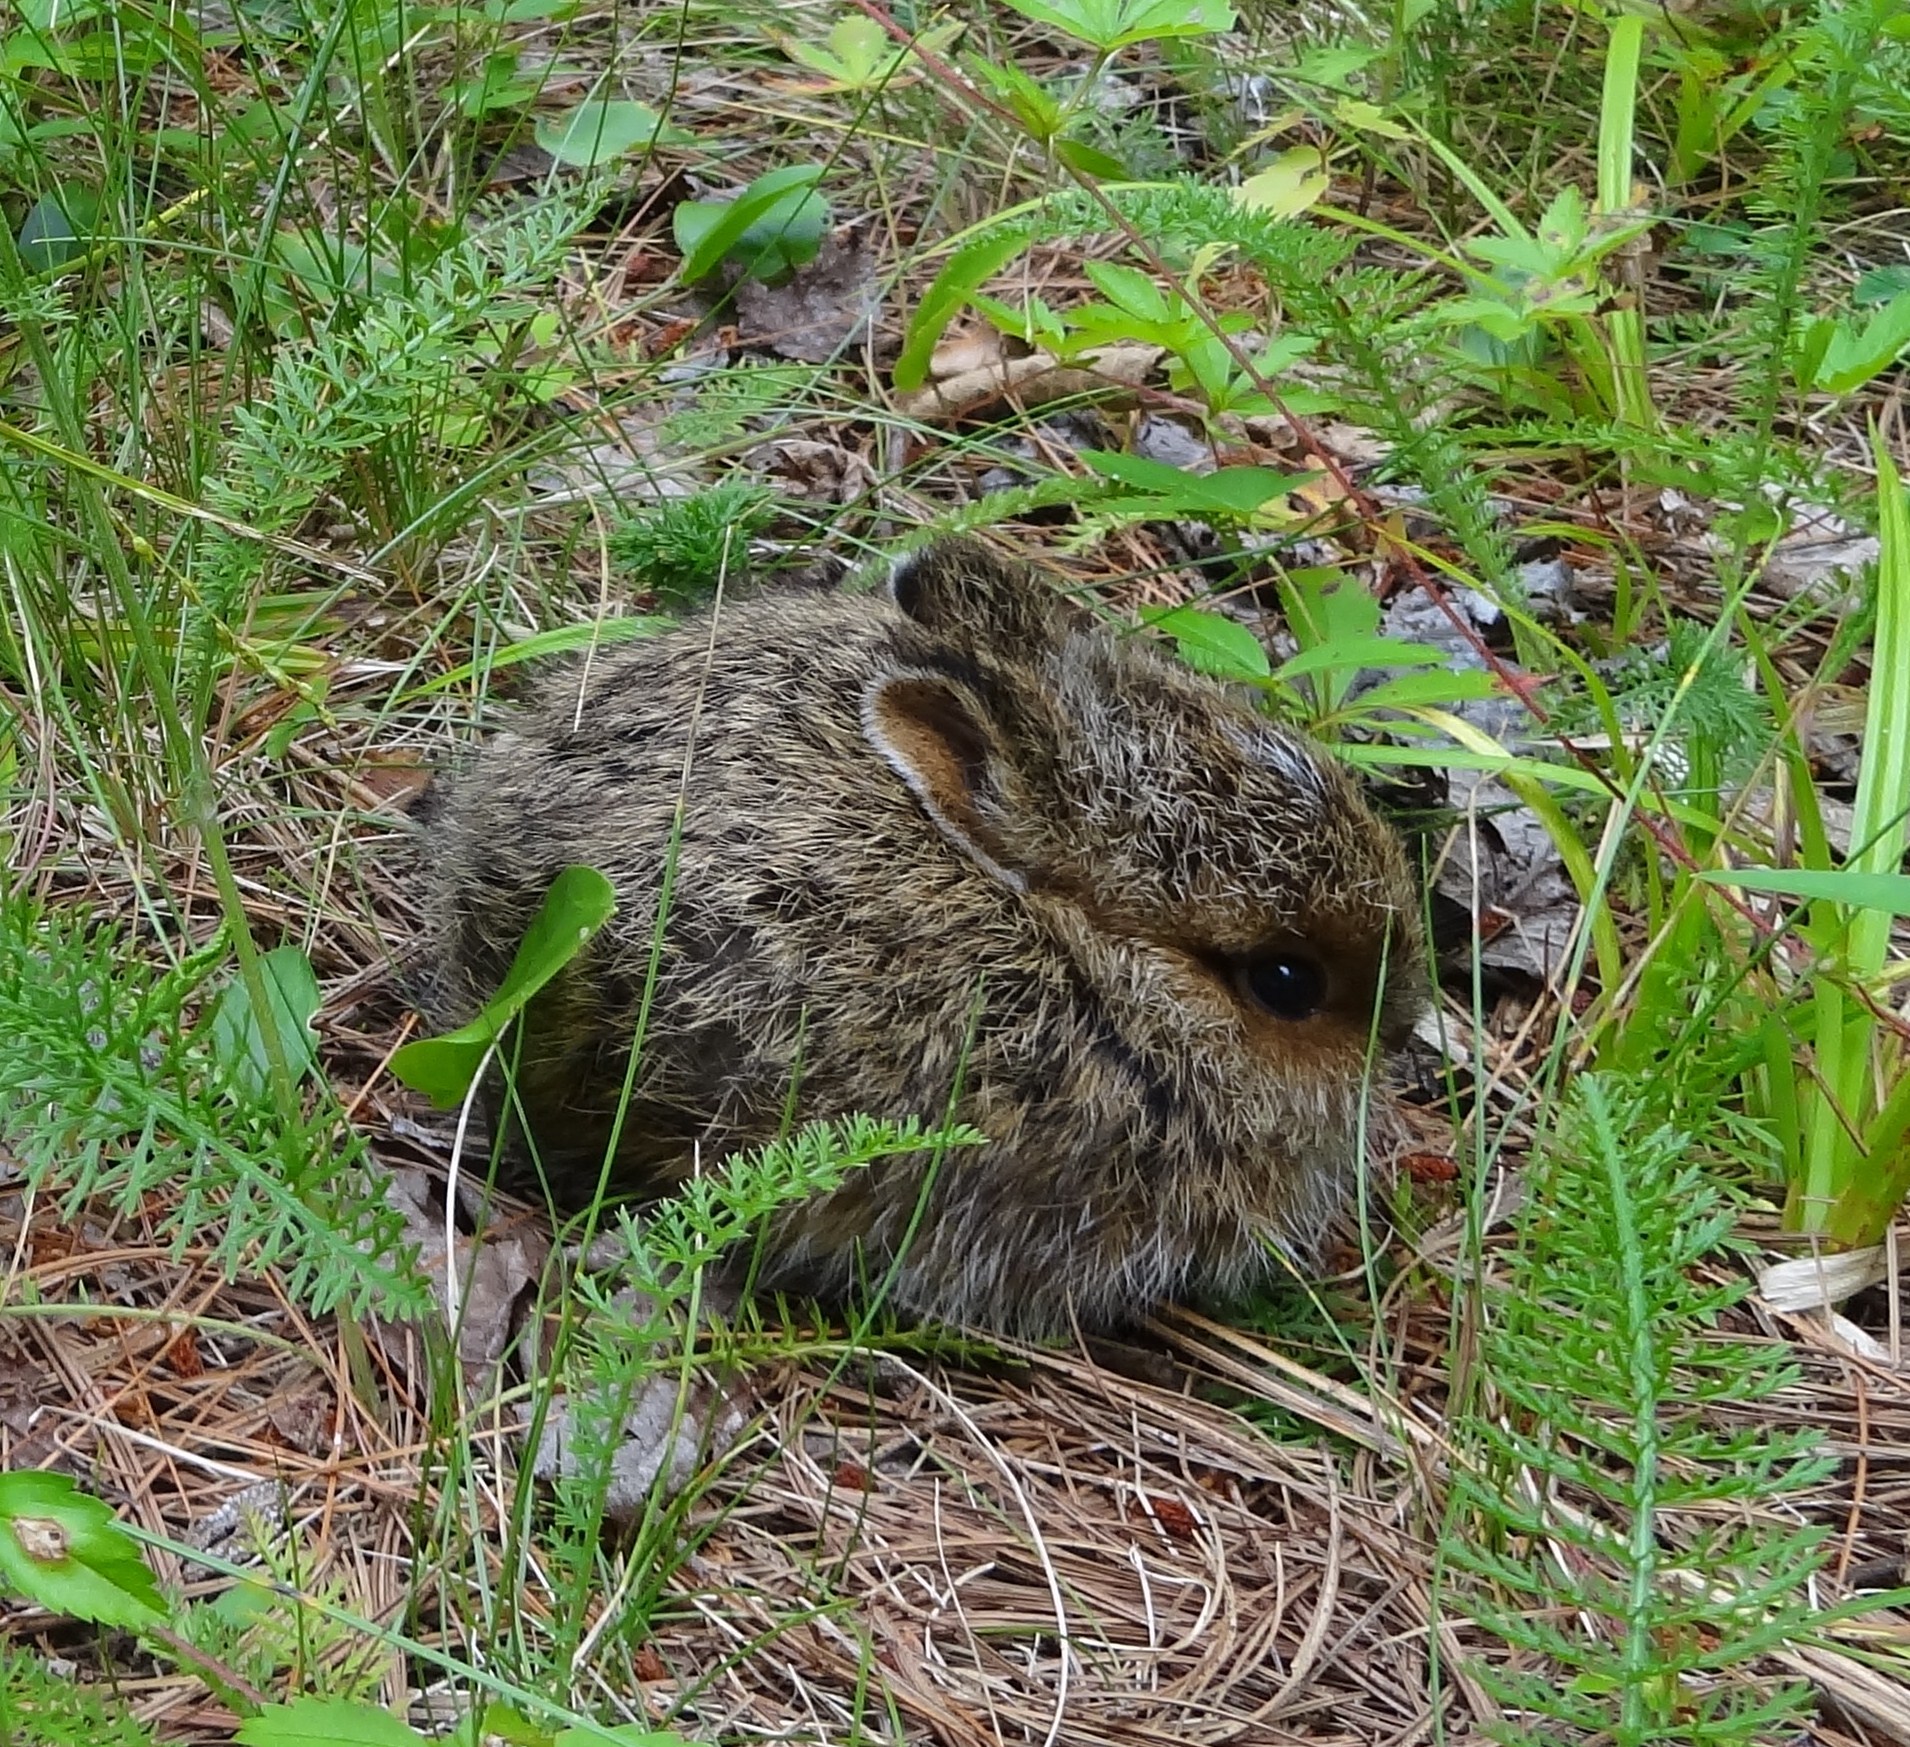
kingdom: Animalia
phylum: Chordata
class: Mammalia
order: Lagomorpha
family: Leporidae
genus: Lepus
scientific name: Lepus americanus
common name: Snowshoe hare
